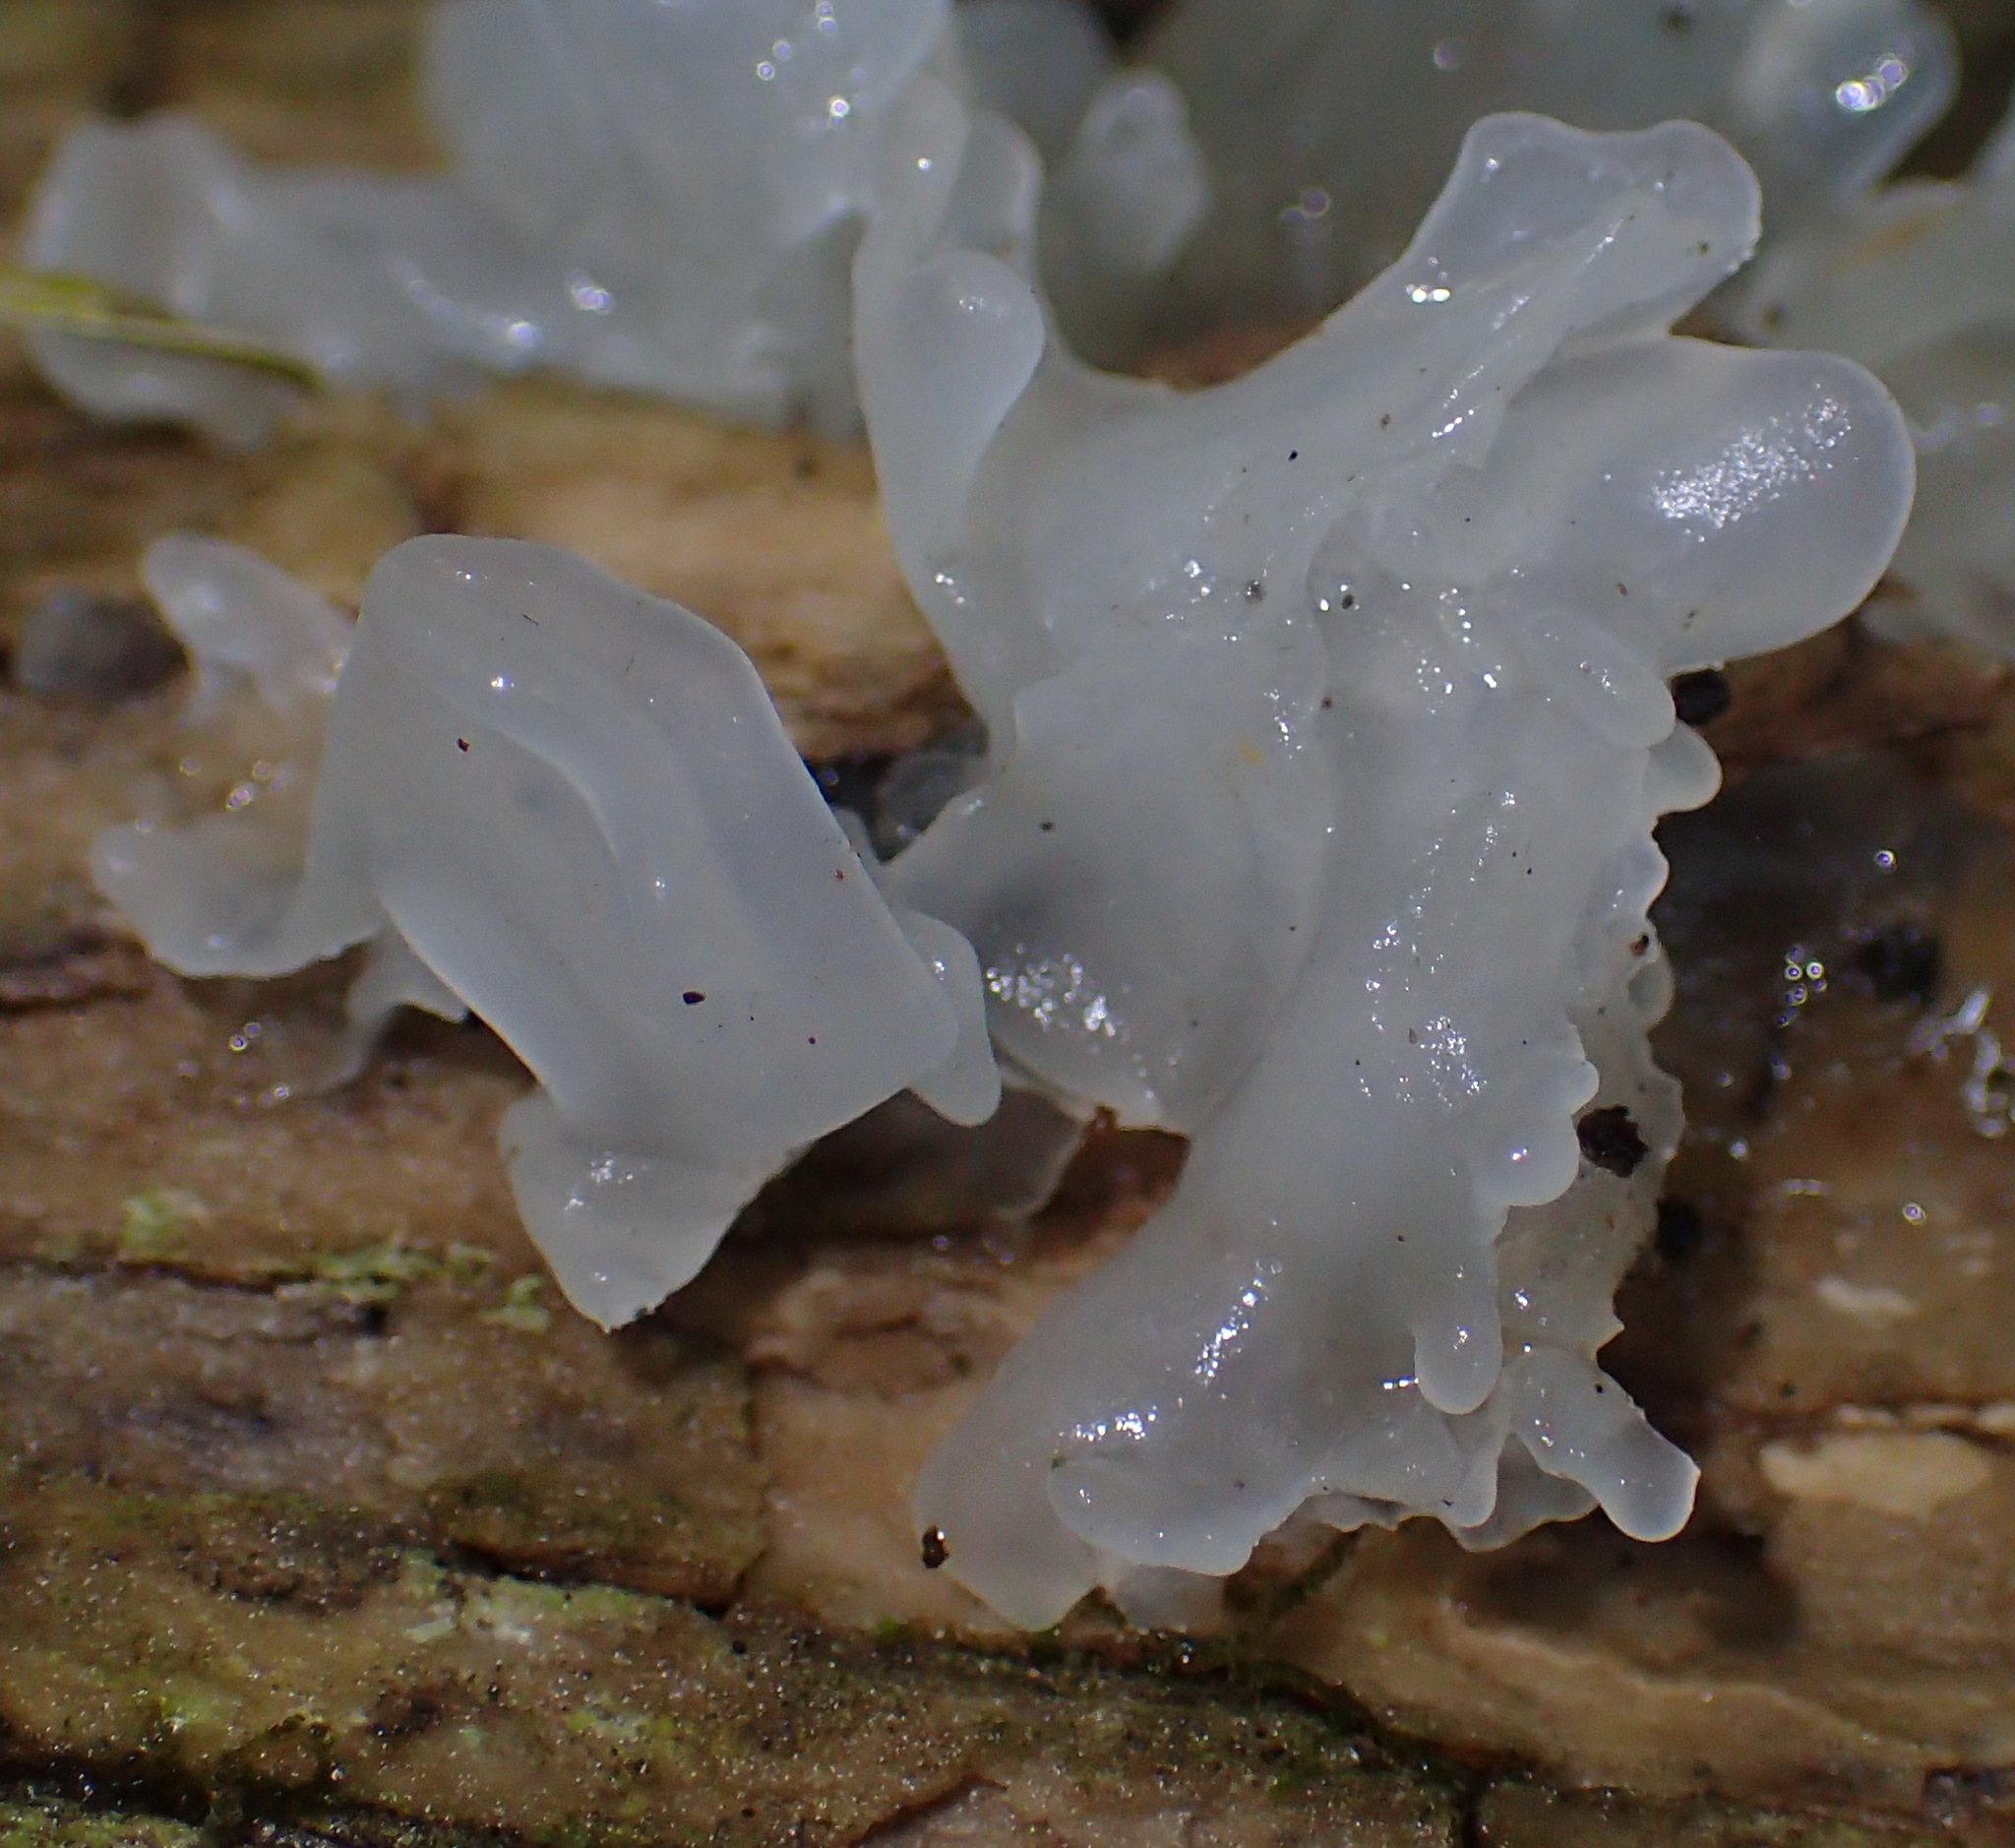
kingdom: Fungi
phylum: Basidiomycota
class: Tremellomycetes
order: Tremellales
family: Tremellaceae
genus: Tremella
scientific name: Tremella fuciformis
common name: Snow fungus
